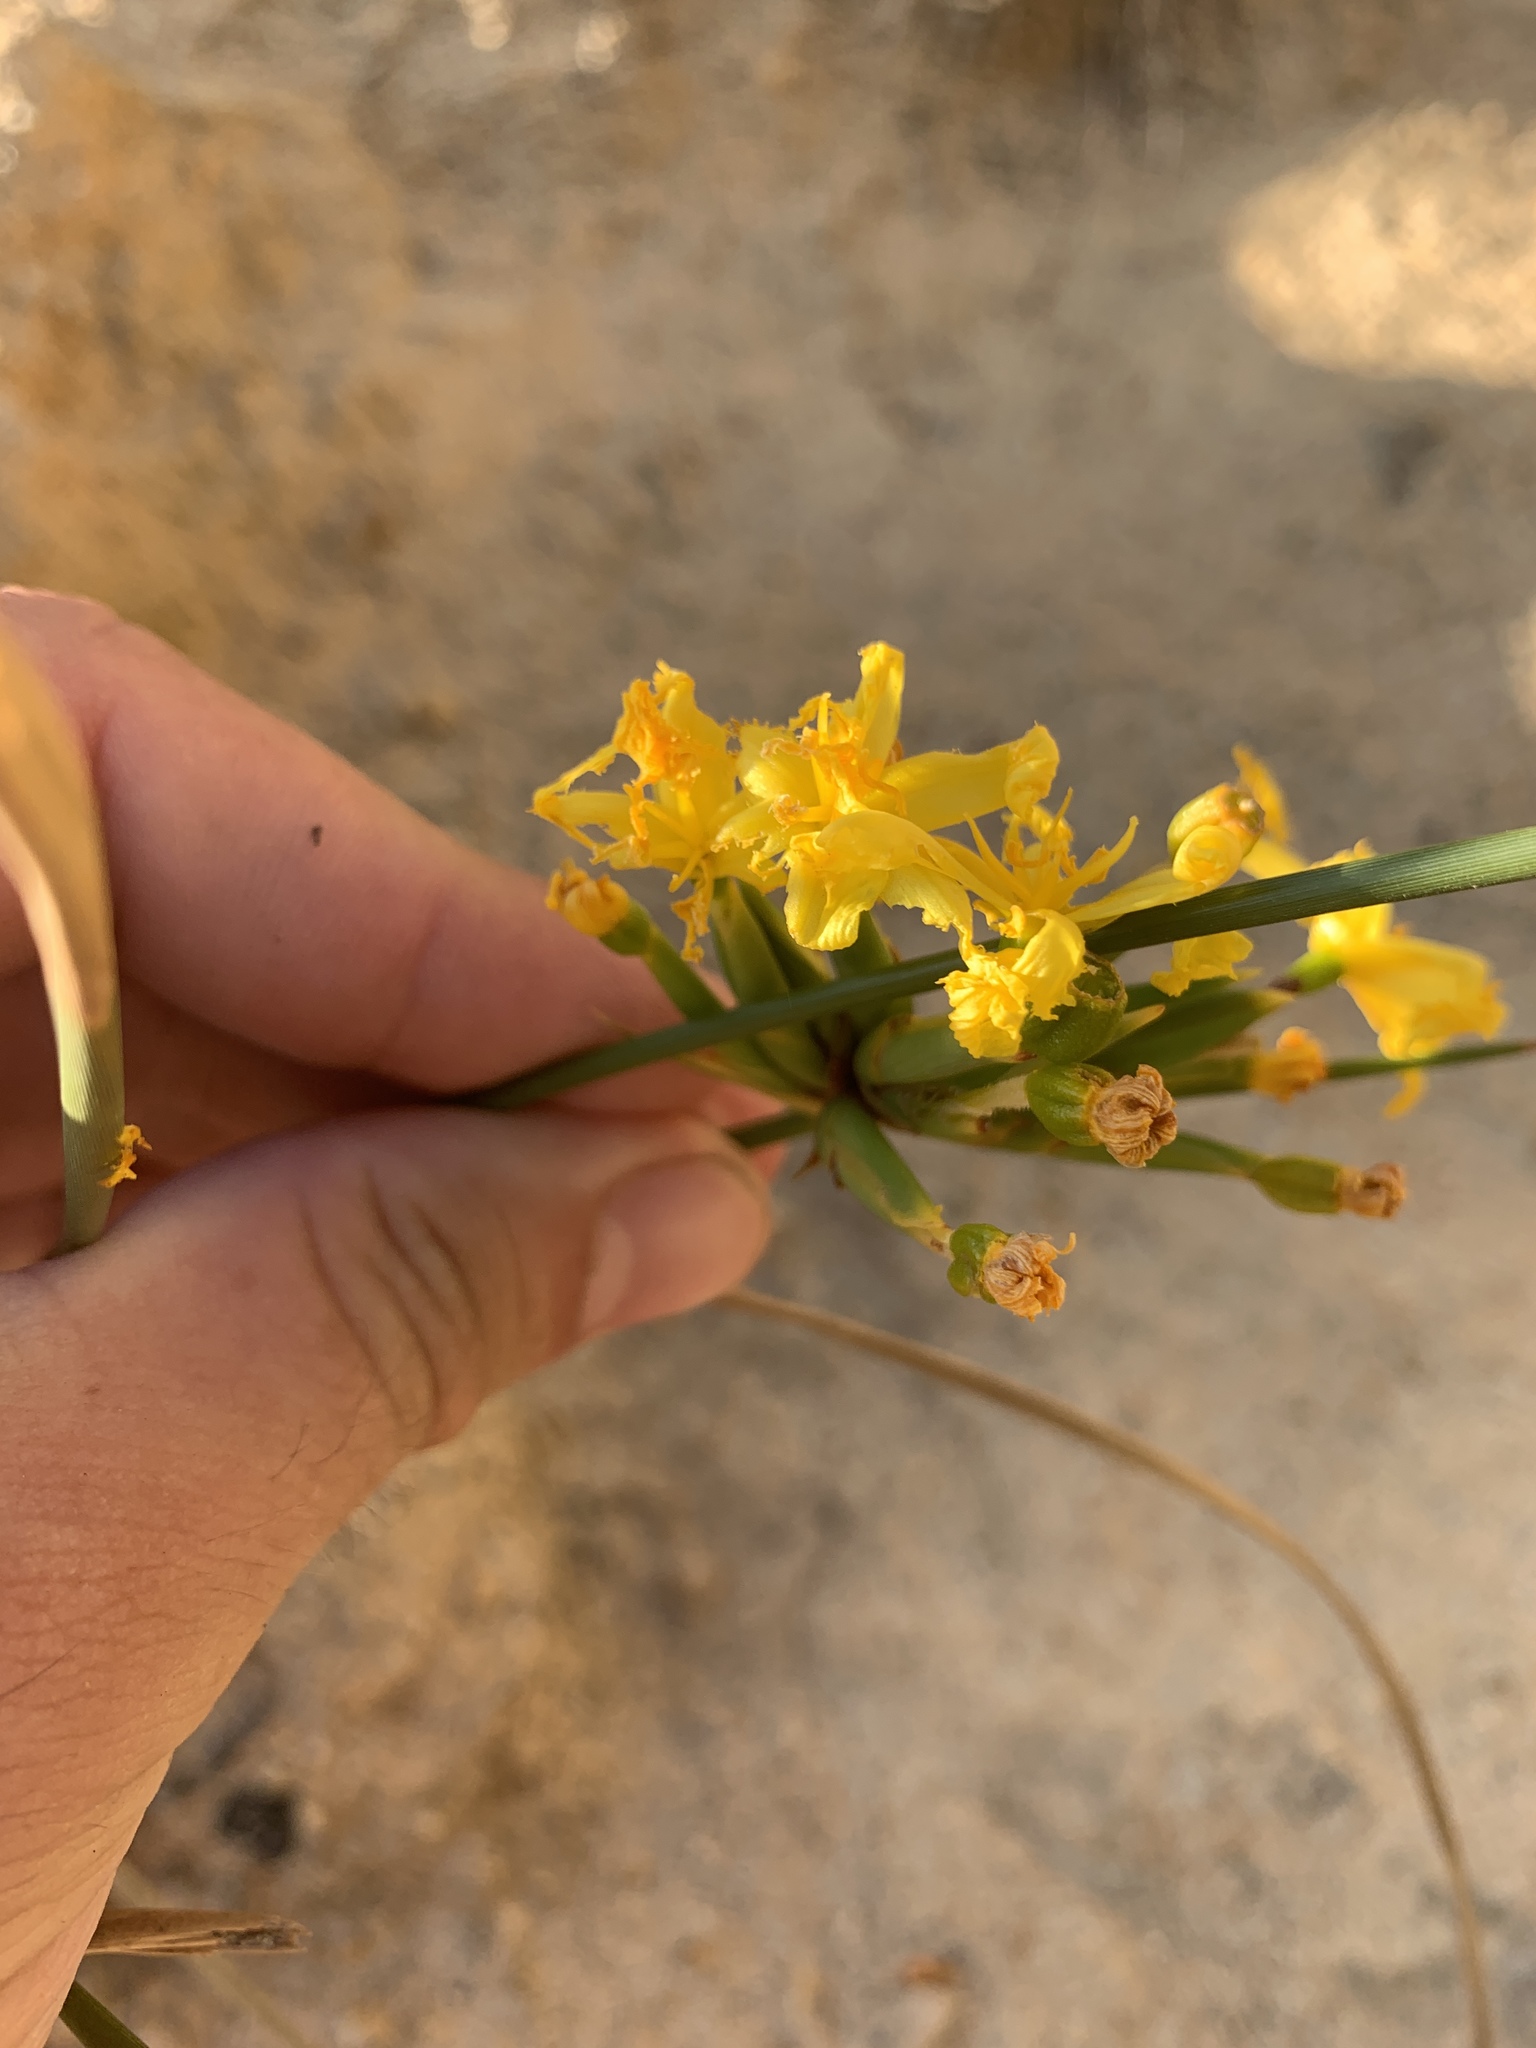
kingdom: Plantae
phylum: Tracheophyta
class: Liliopsida
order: Asparagales
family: Iridaceae
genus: Bobartia
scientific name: Bobartia indica
